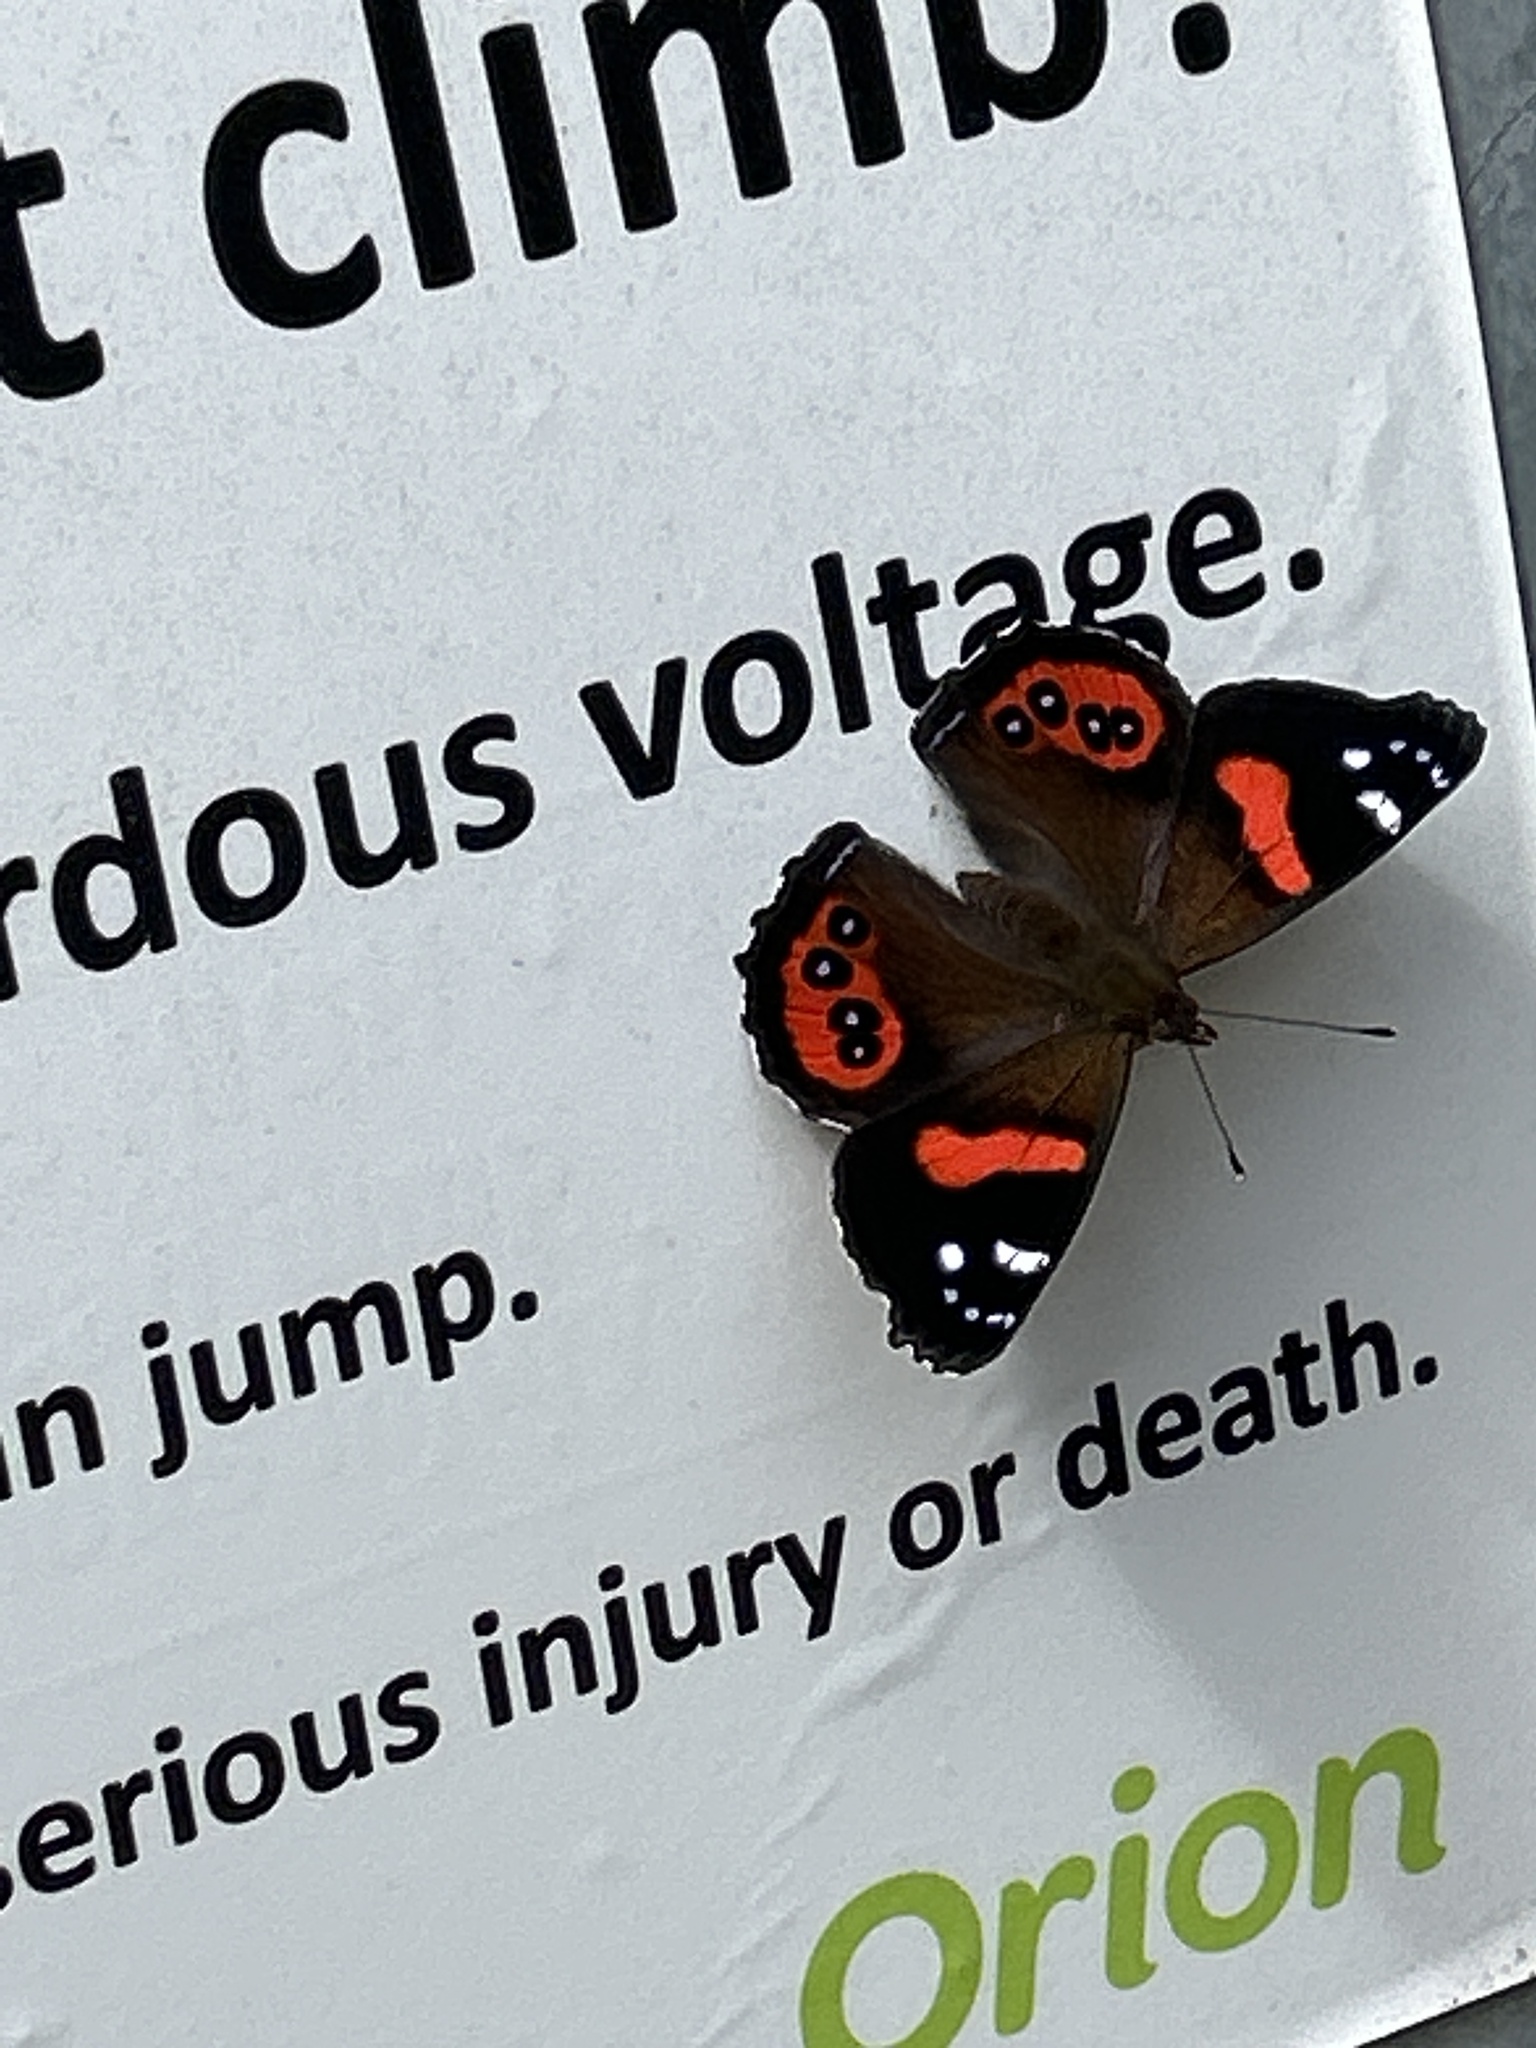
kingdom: Animalia
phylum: Arthropoda
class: Insecta
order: Lepidoptera
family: Nymphalidae
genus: Vanessa
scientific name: Vanessa gonerilla
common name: New zealand red admiral
